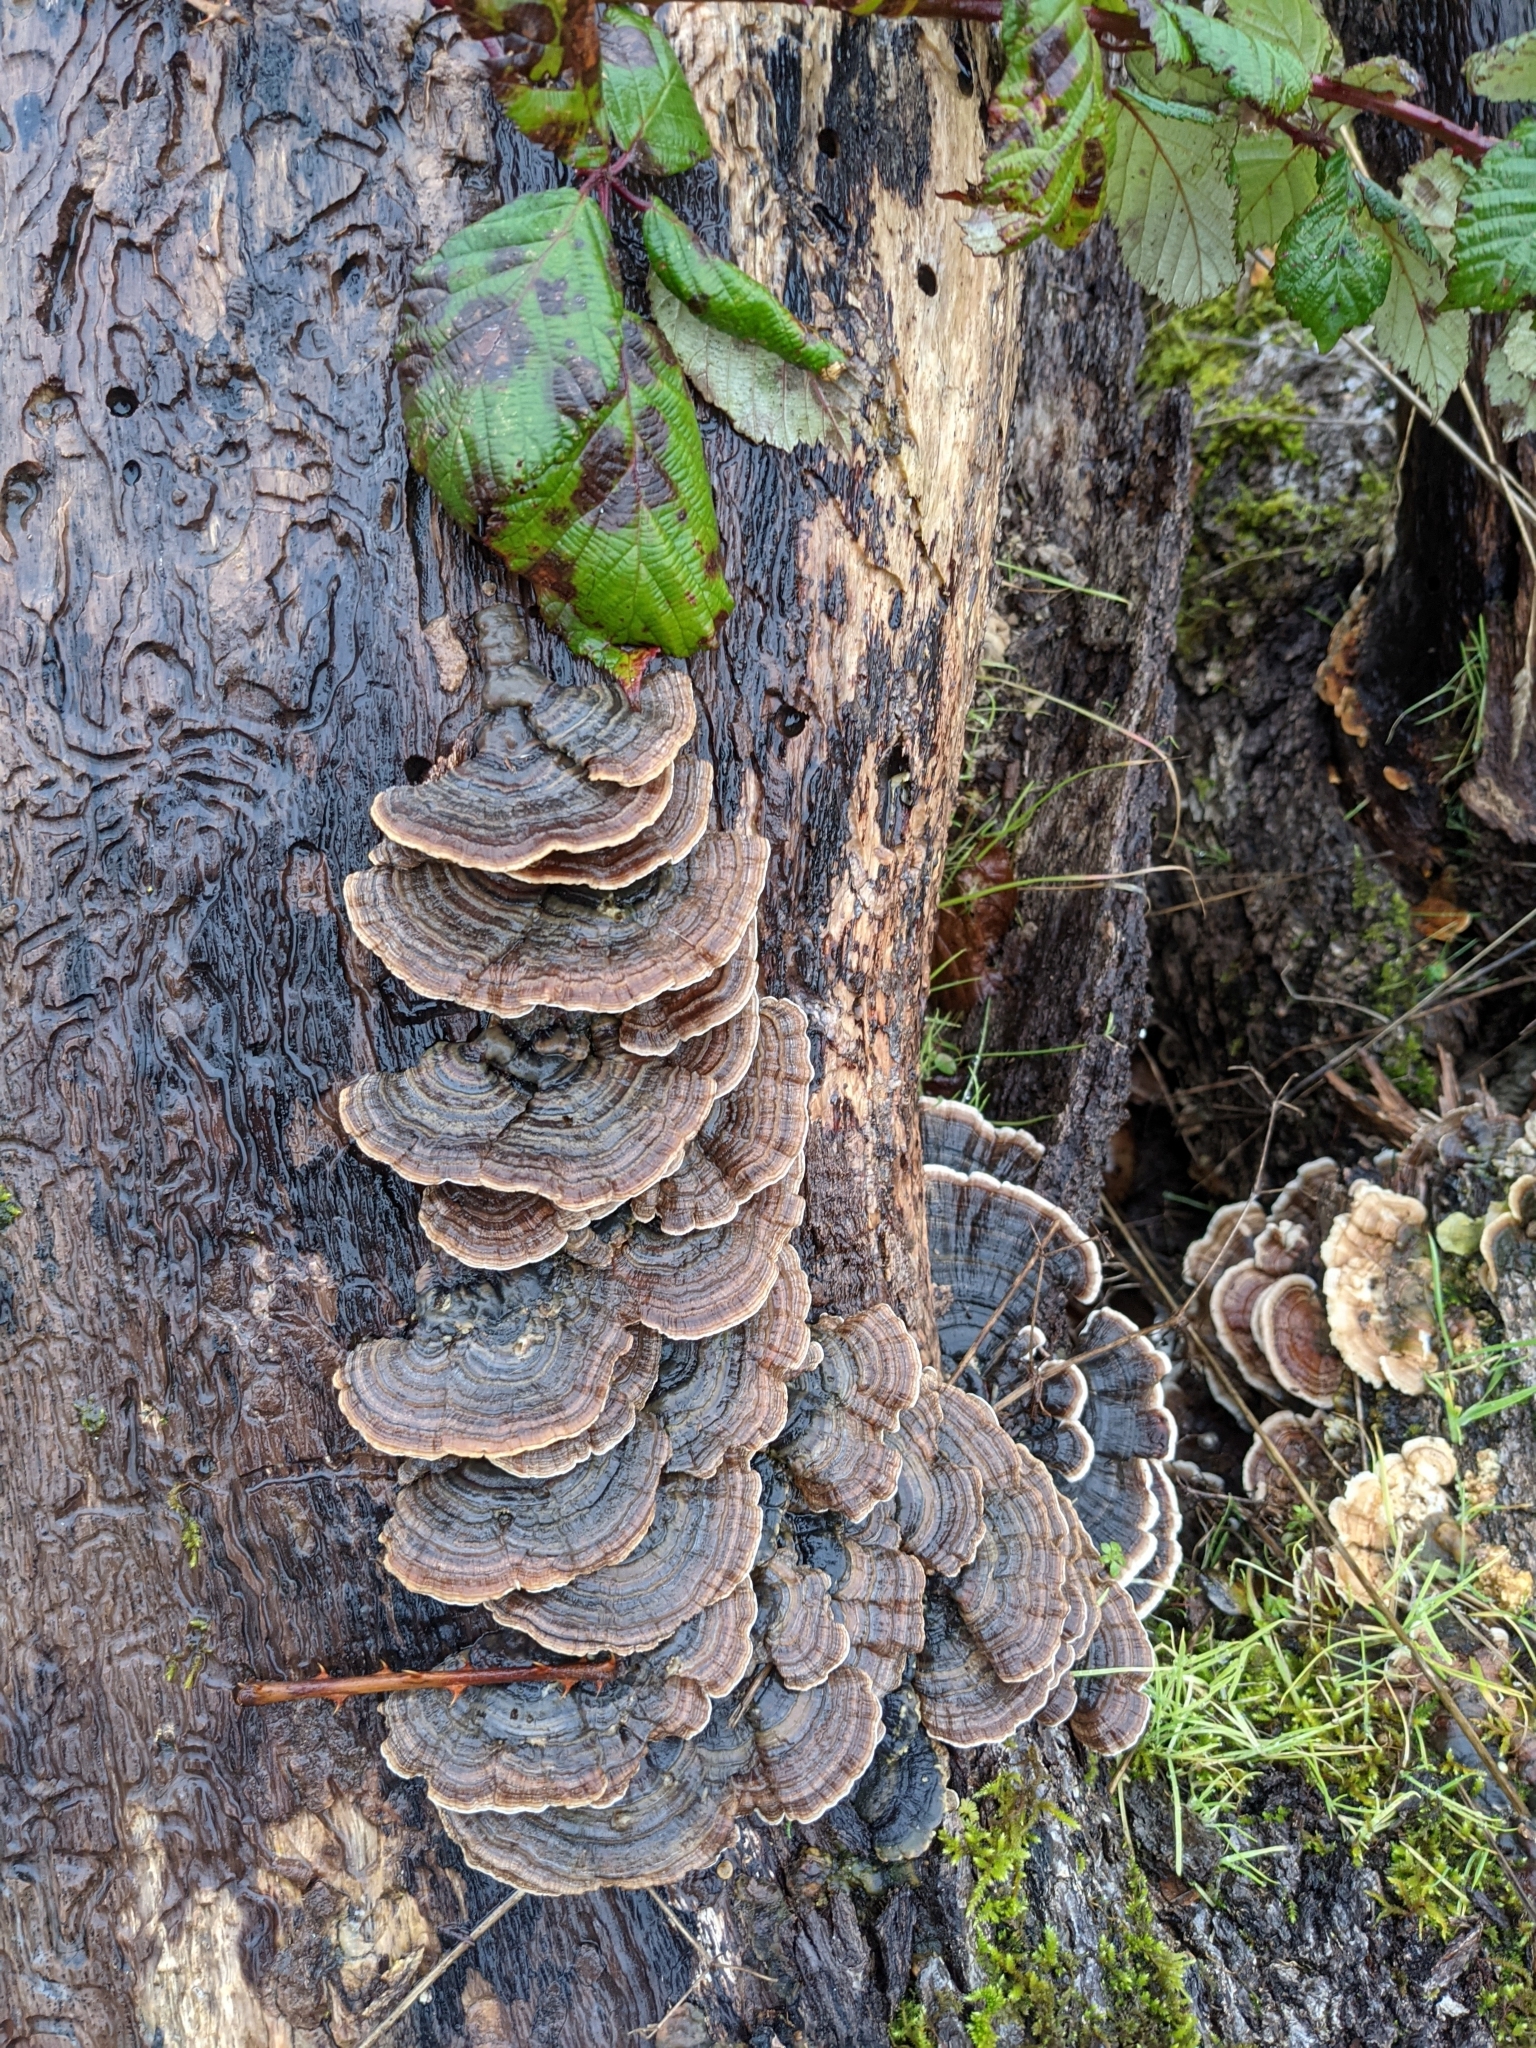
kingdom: Fungi
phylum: Basidiomycota
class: Agaricomycetes
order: Polyporales
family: Polyporaceae
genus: Trametes
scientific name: Trametes versicolor
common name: Turkeytail
